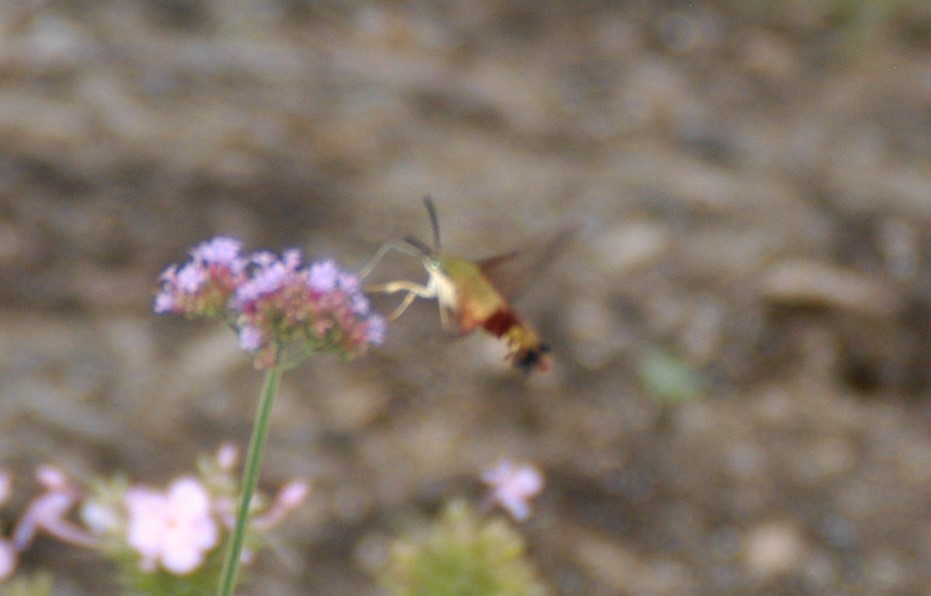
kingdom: Animalia
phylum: Arthropoda
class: Insecta
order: Lepidoptera
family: Sphingidae
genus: Hemaris
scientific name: Hemaris thysbe
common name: Common clear-wing
